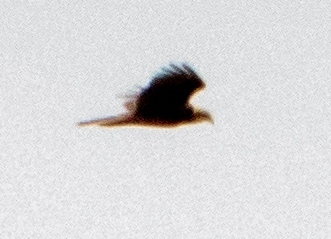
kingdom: Animalia
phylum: Chordata
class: Aves
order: Accipitriformes
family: Accipitridae
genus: Circus
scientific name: Circus aeruginosus
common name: Western marsh harrier
